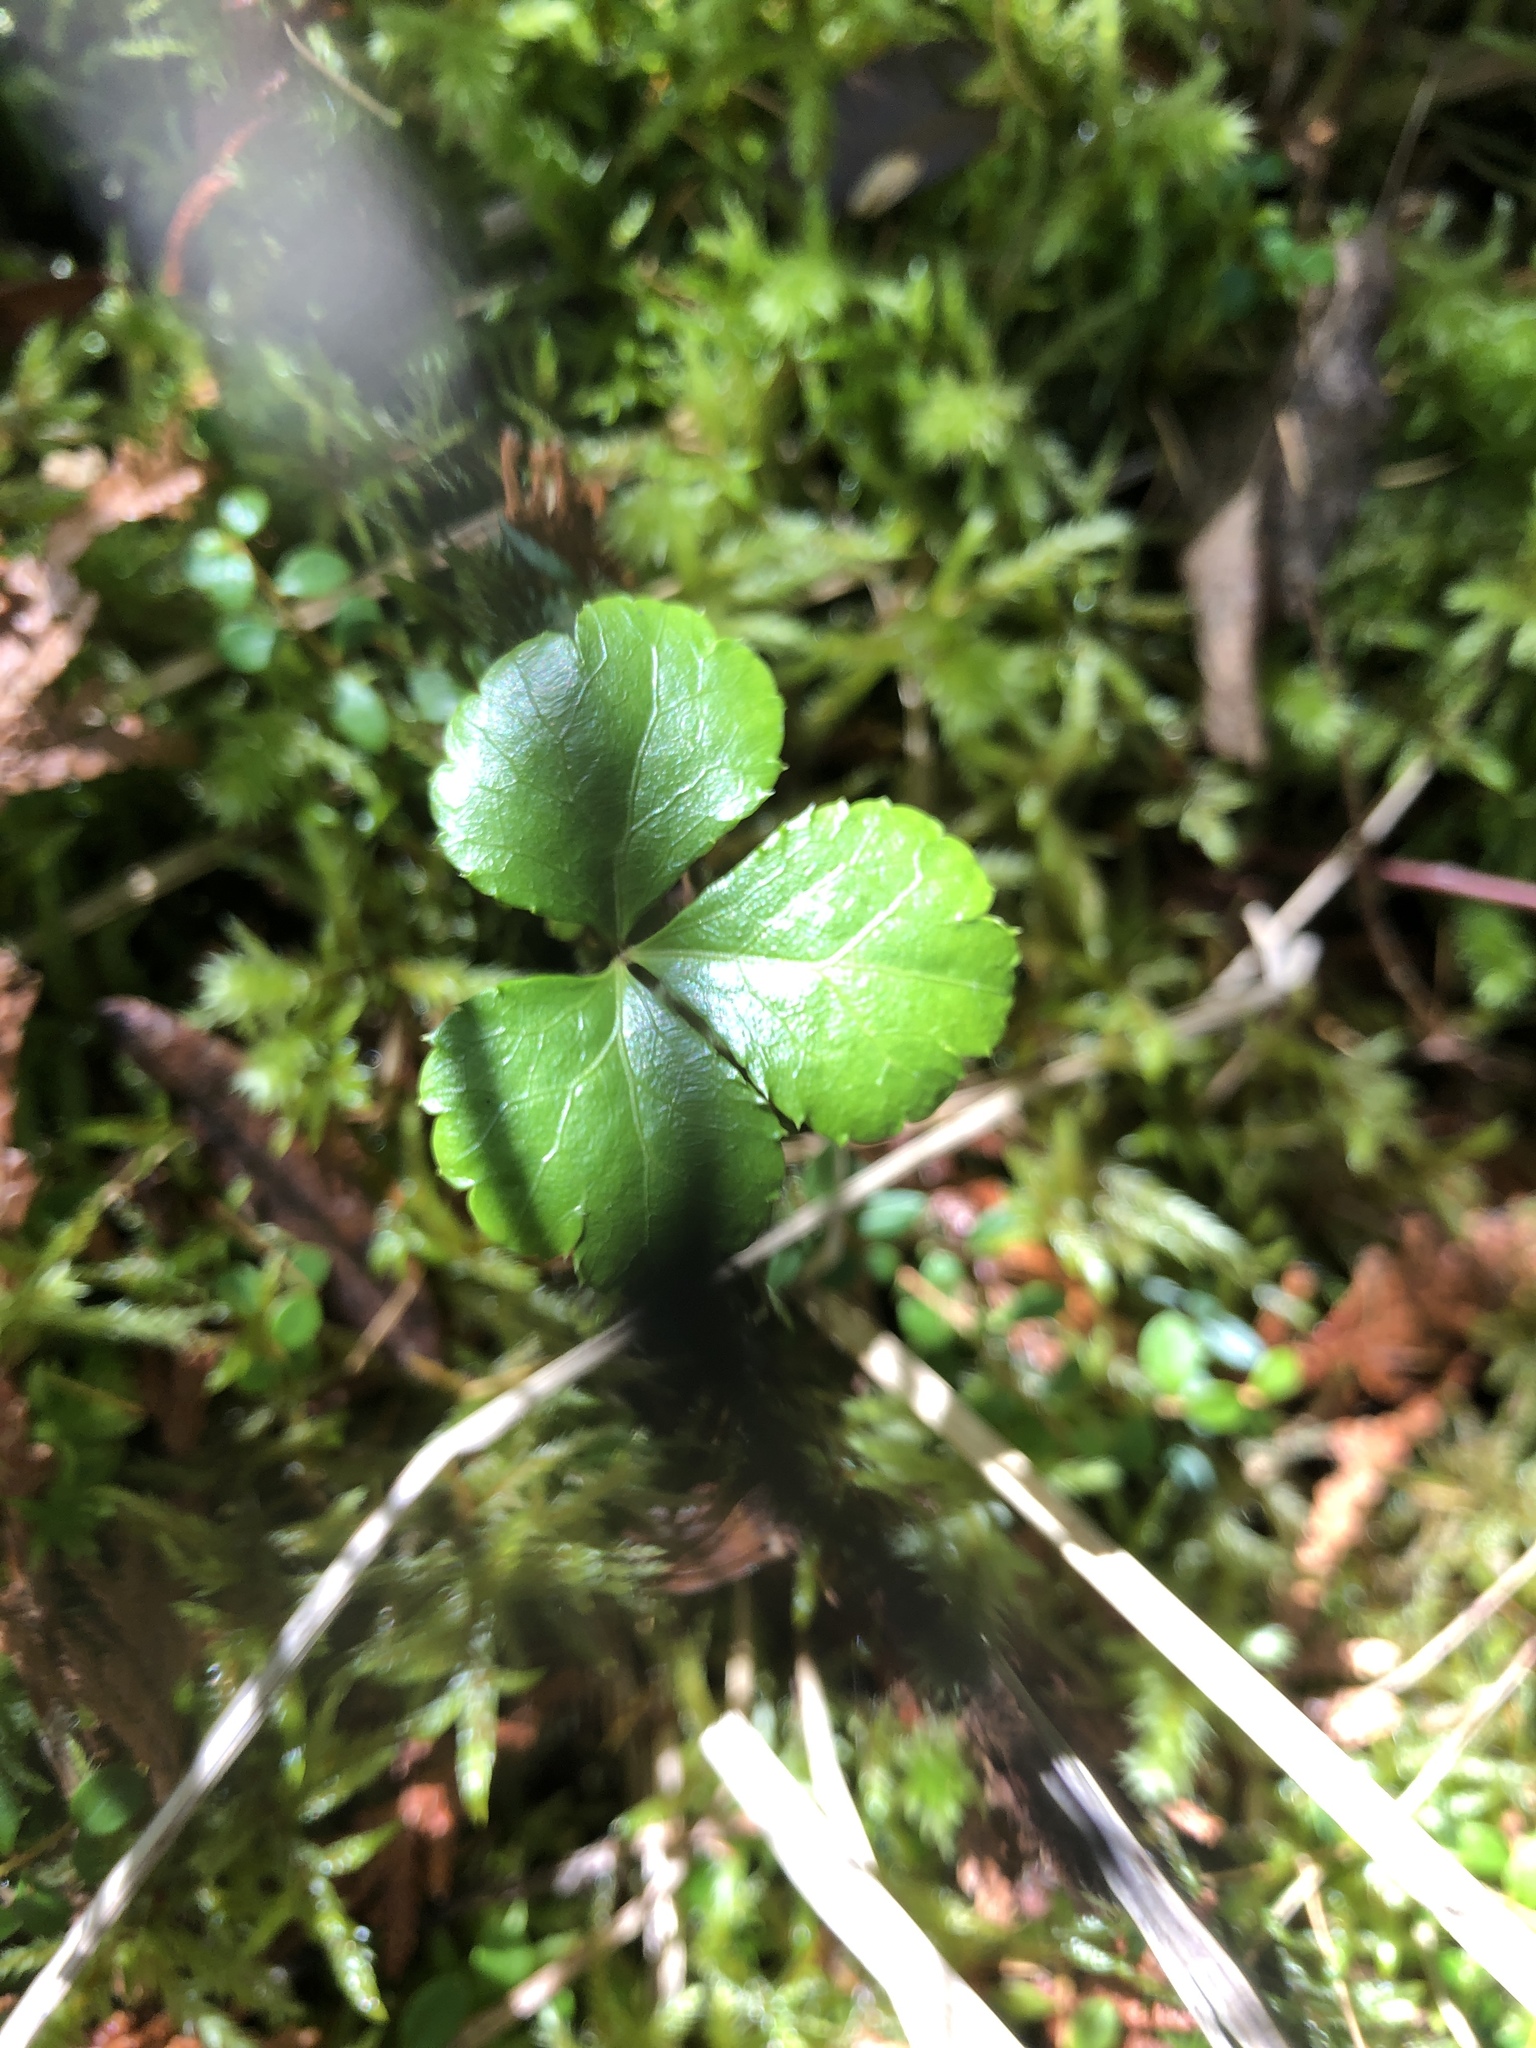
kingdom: Plantae
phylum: Tracheophyta
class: Magnoliopsida
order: Ranunculales
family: Ranunculaceae
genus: Coptis
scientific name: Coptis trifolia
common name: Canker-root
